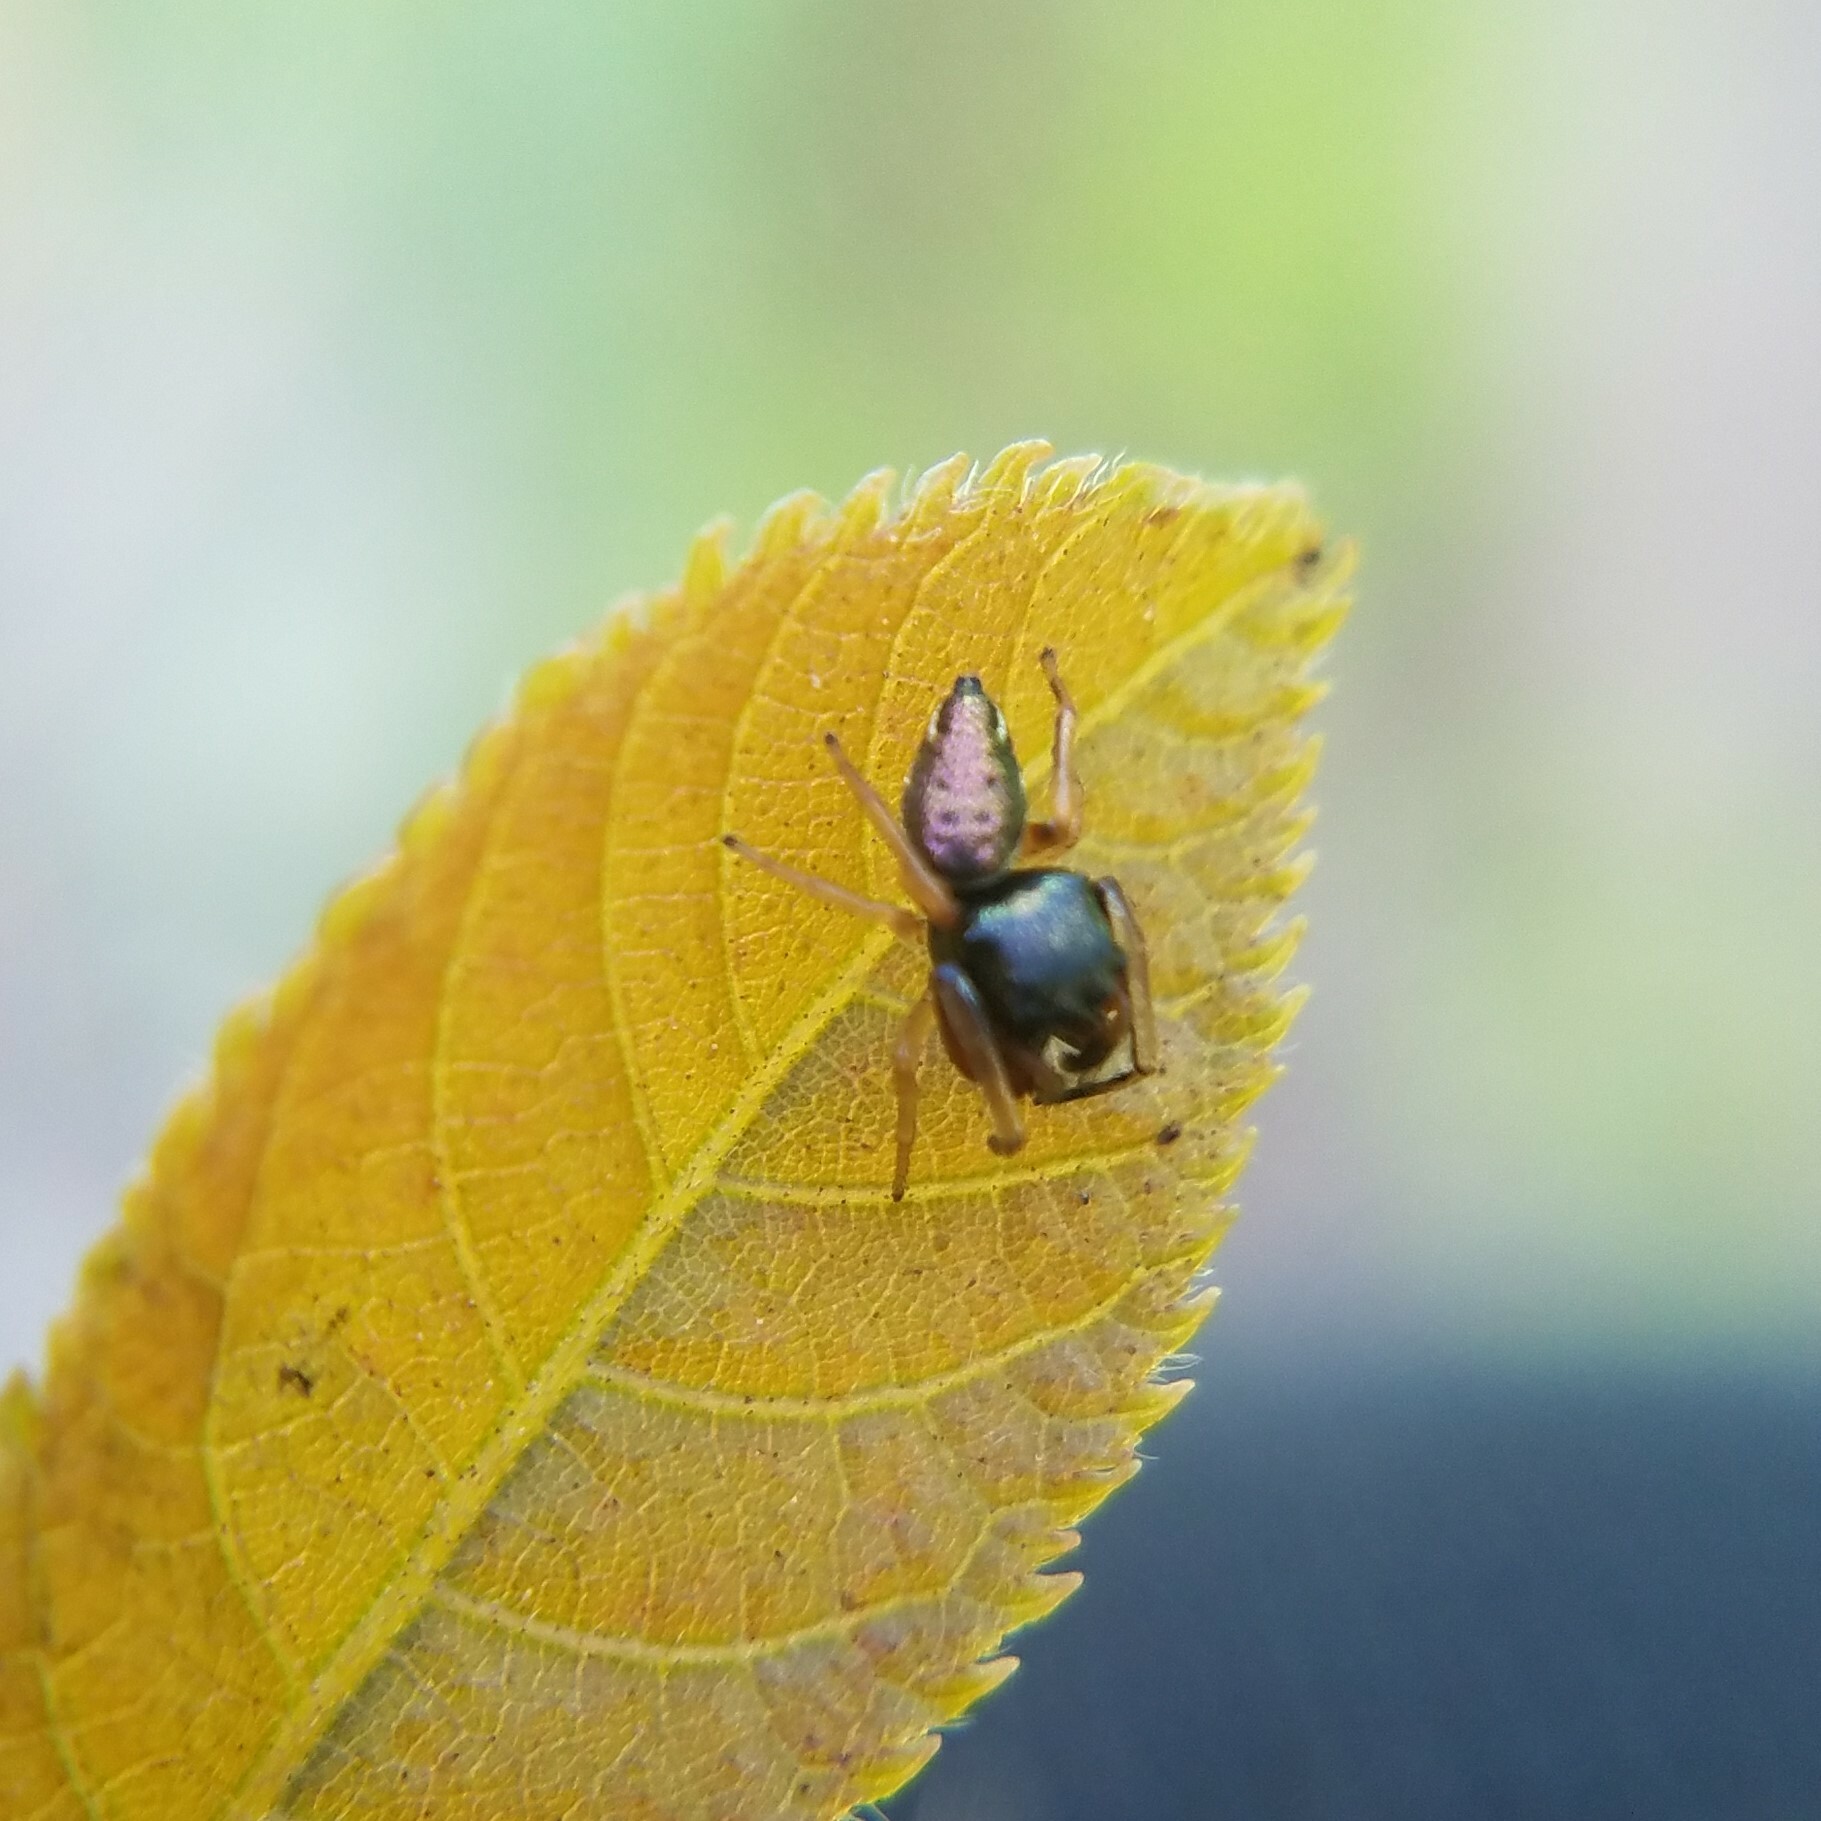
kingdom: Animalia
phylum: Arthropoda
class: Arachnida
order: Araneae
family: Salticidae
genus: Zygoballus
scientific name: Zygoballus rufipes
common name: Jumping spiders
